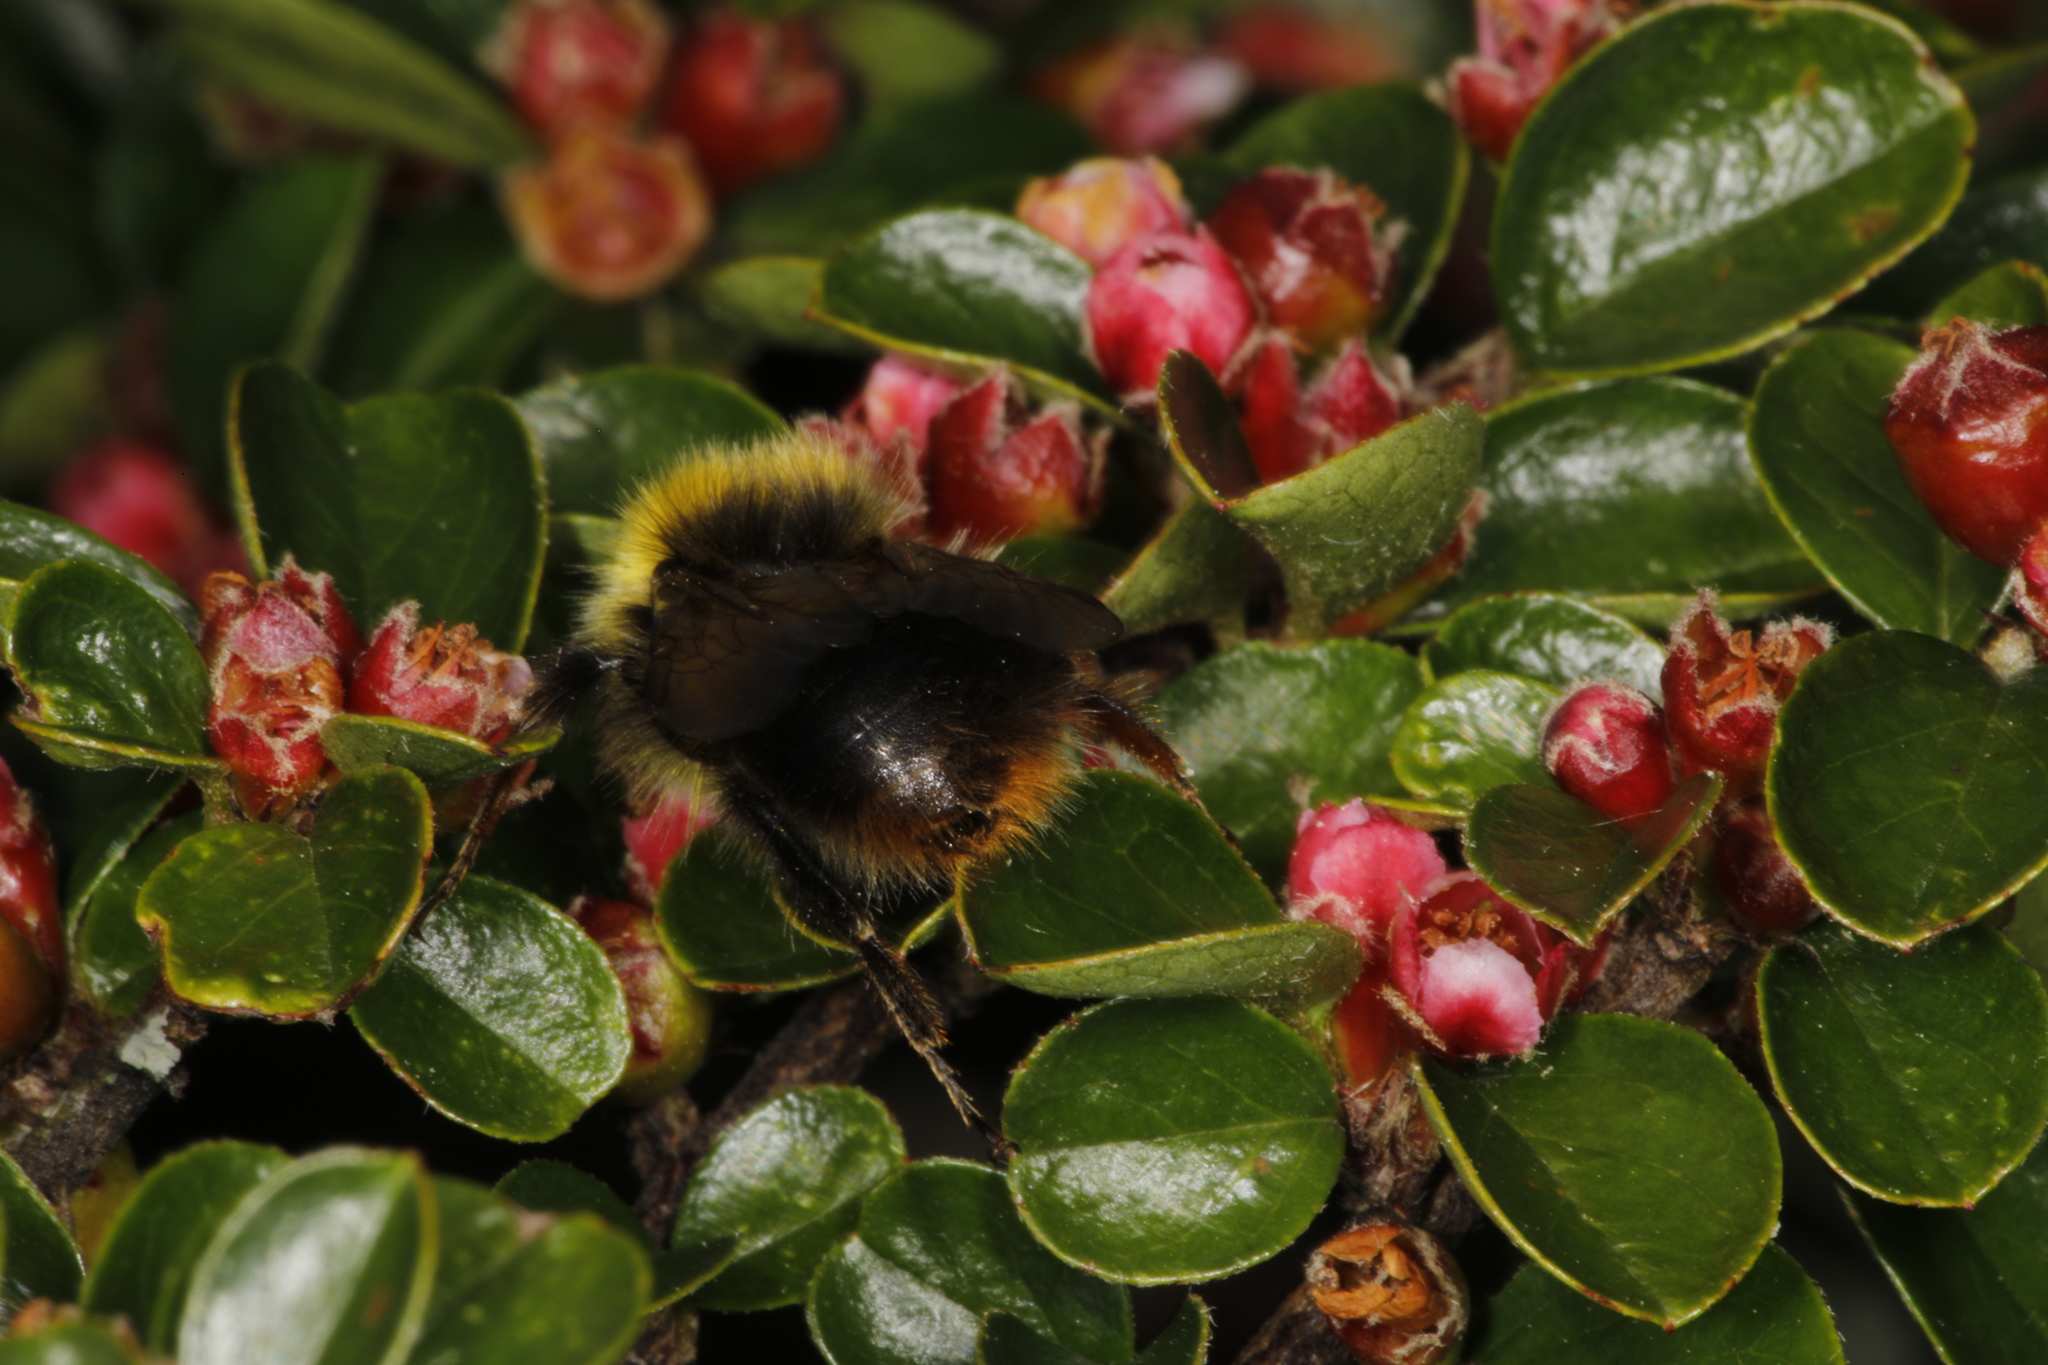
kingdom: Animalia
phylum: Arthropoda
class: Insecta
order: Hymenoptera
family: Apidae
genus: Bombus
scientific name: Bombus pratorum
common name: Early humble-bee
